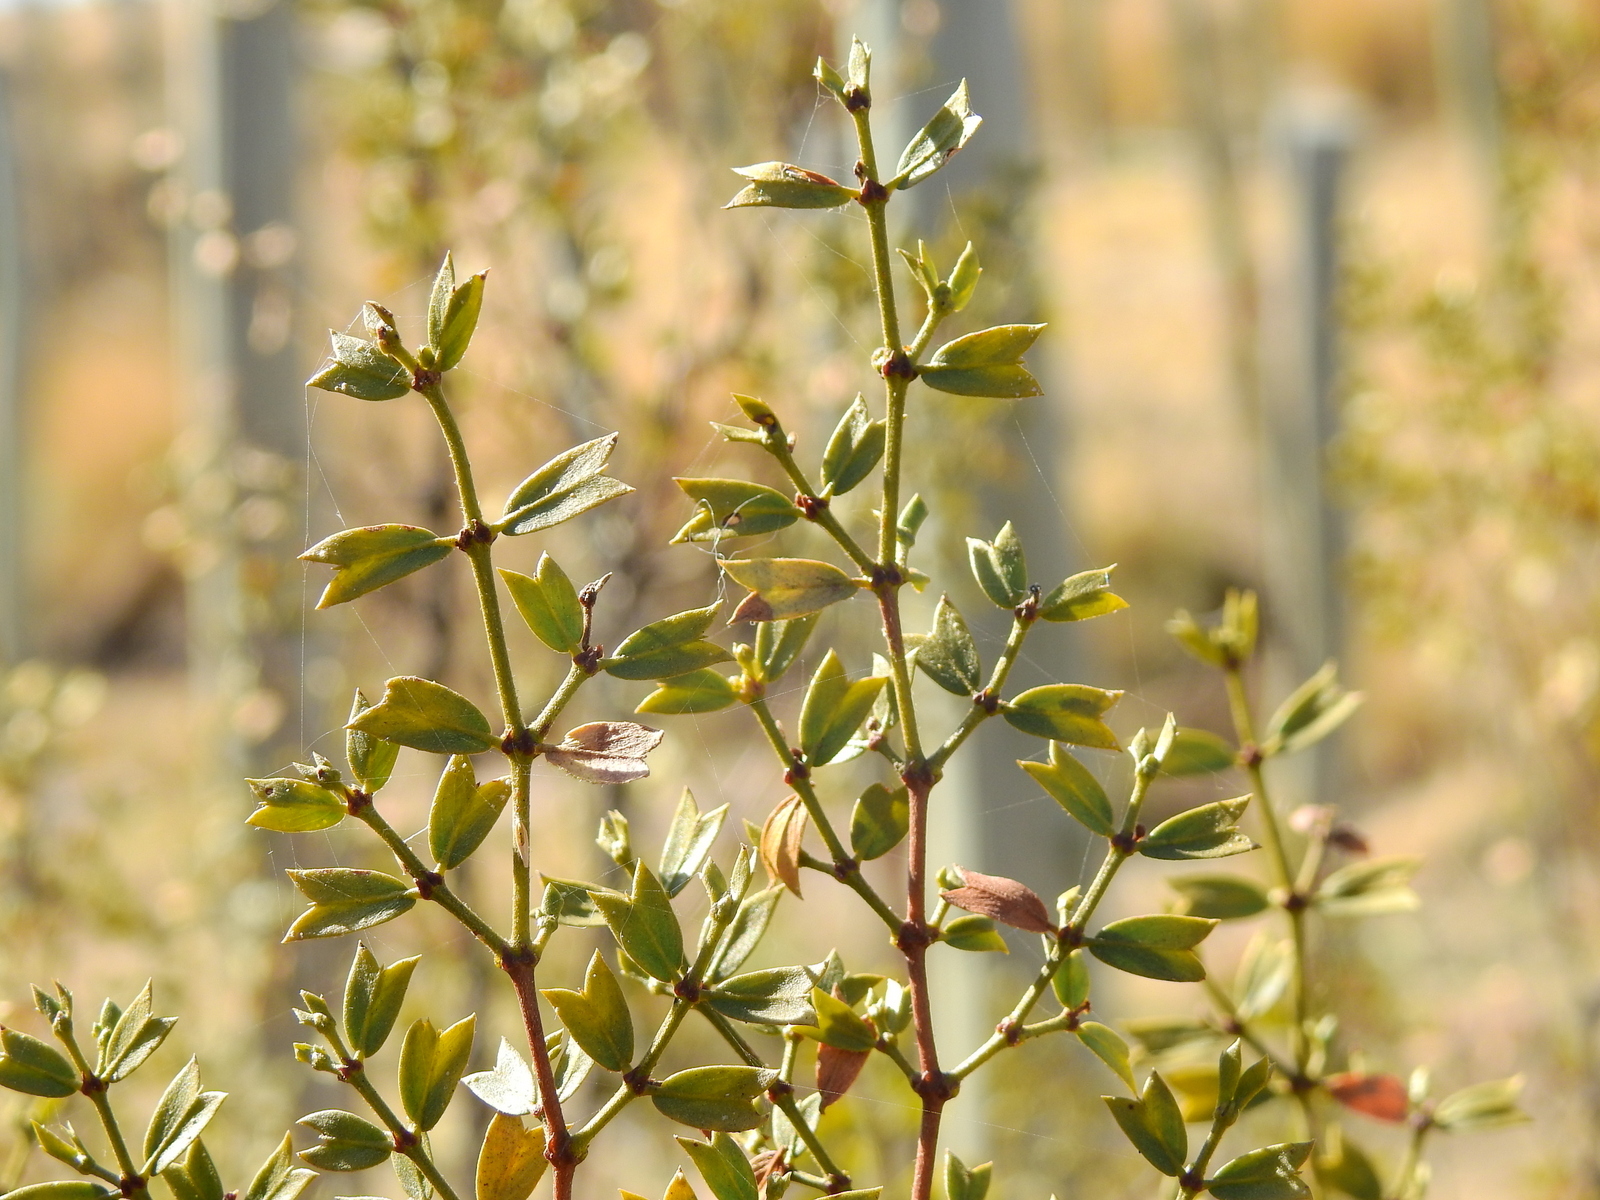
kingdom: Plantae
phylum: Tracheophyta
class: Magnoliopsida
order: Zygophyllales
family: Zygophyllaceae
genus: Larrea
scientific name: Larrea cuneifolia
